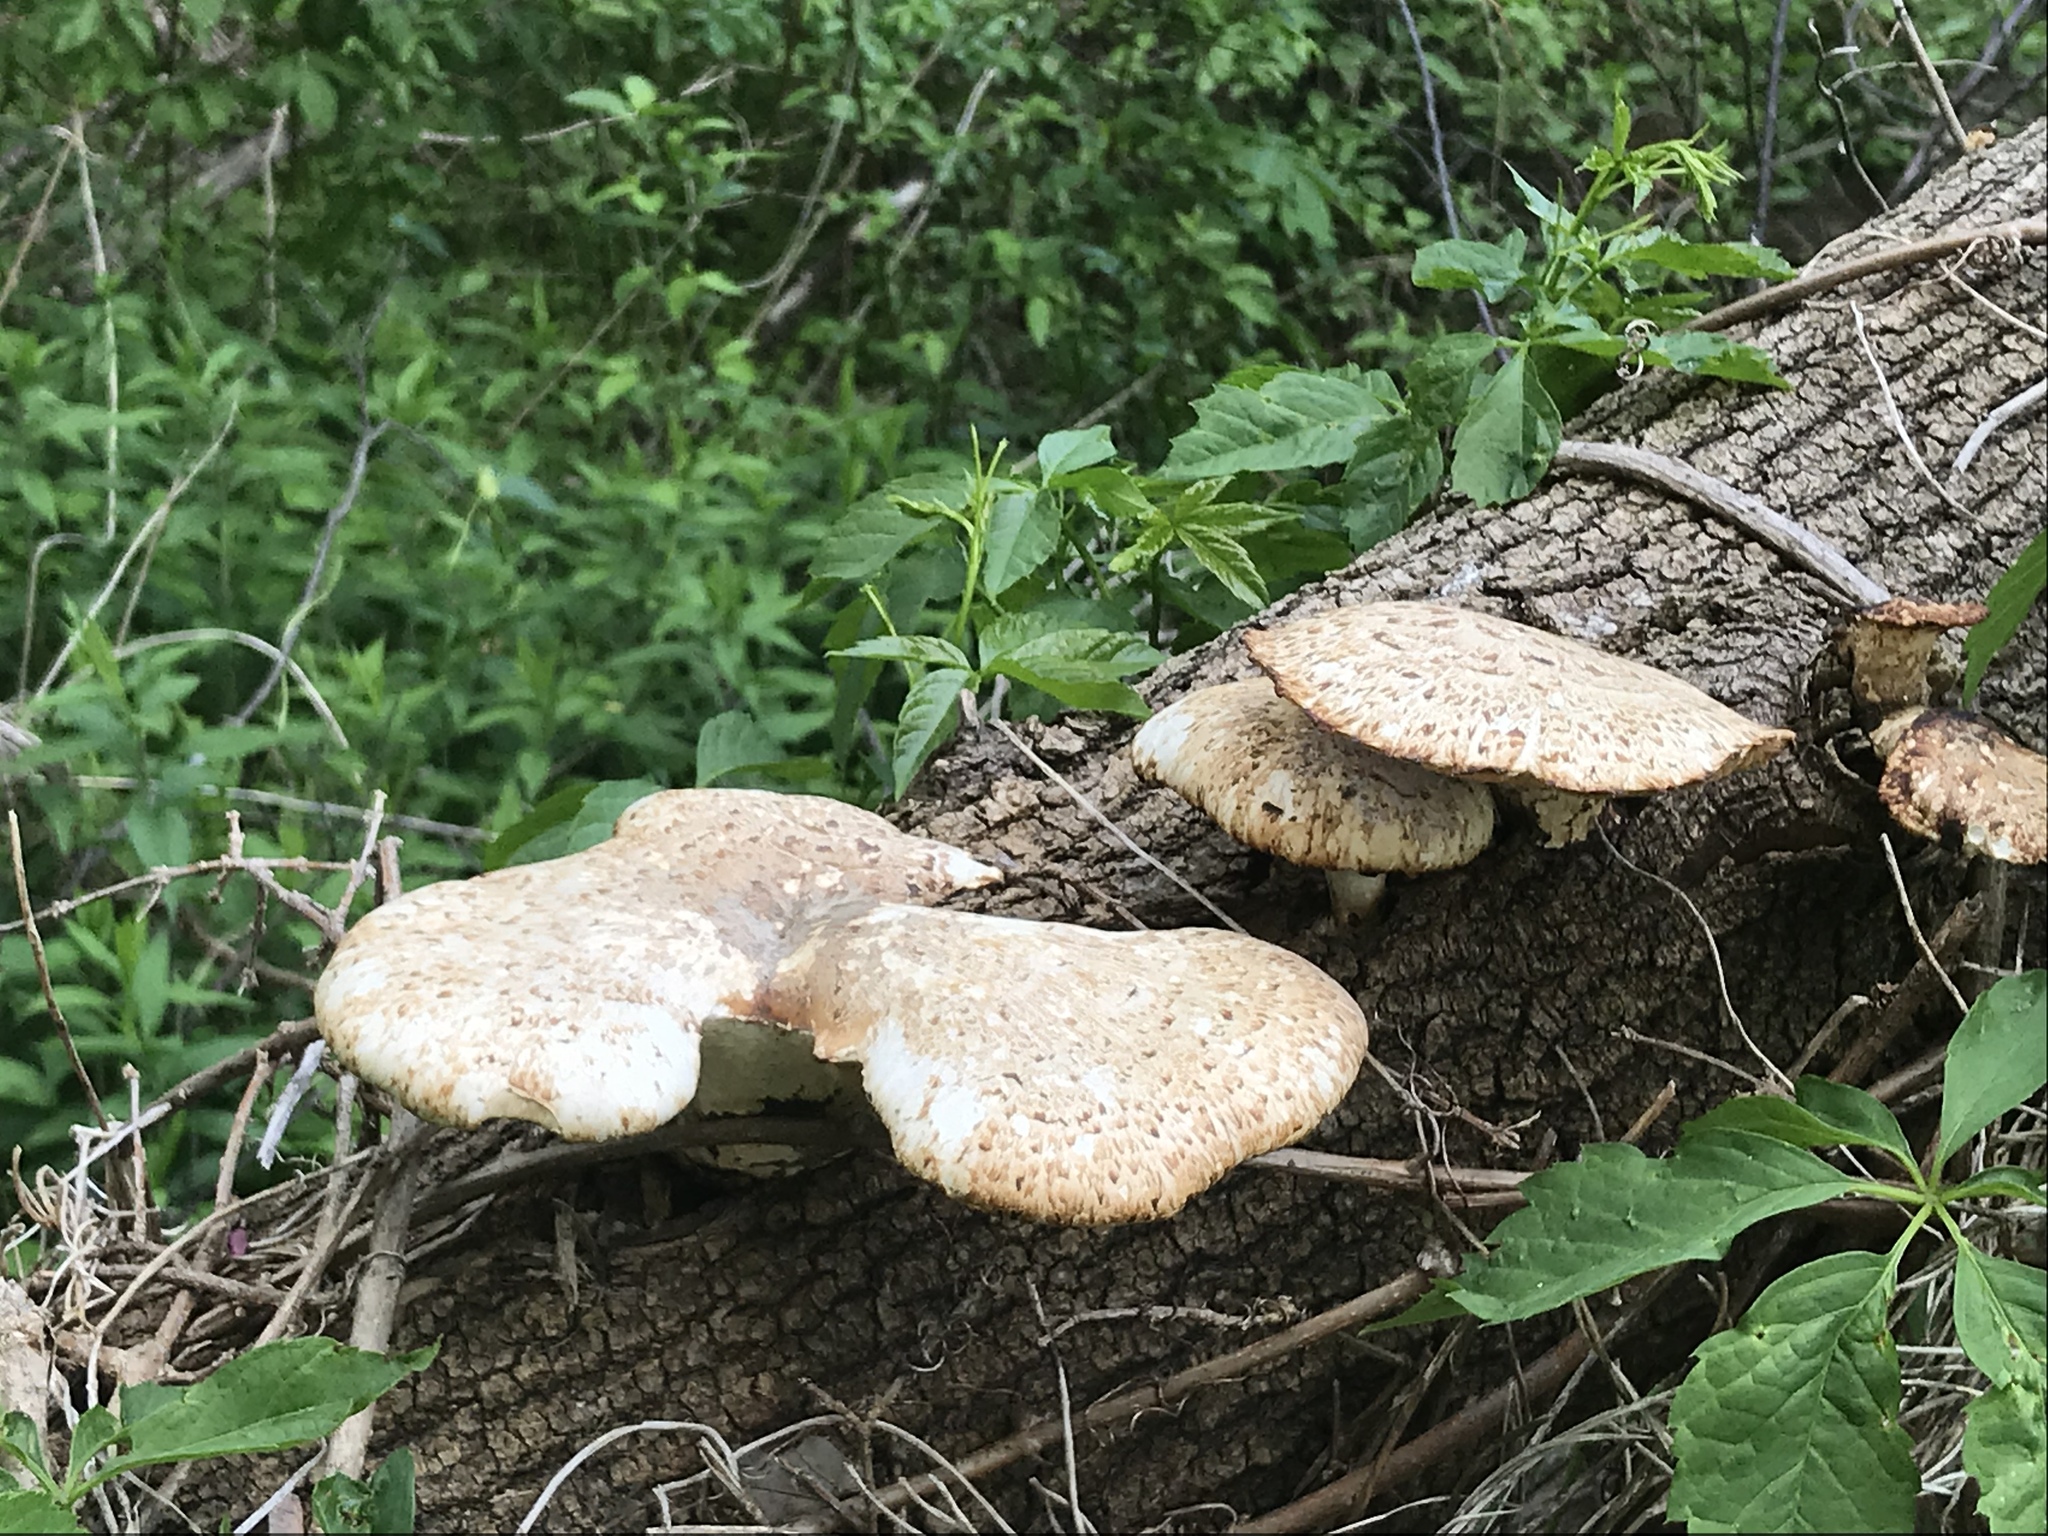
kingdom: Fungi
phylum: Basidiomycota
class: Agaricomycetes
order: Polyporales
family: Polyporaceae
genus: Cerioporus
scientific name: Cerioporus squamosus
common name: Dryad's saddle
